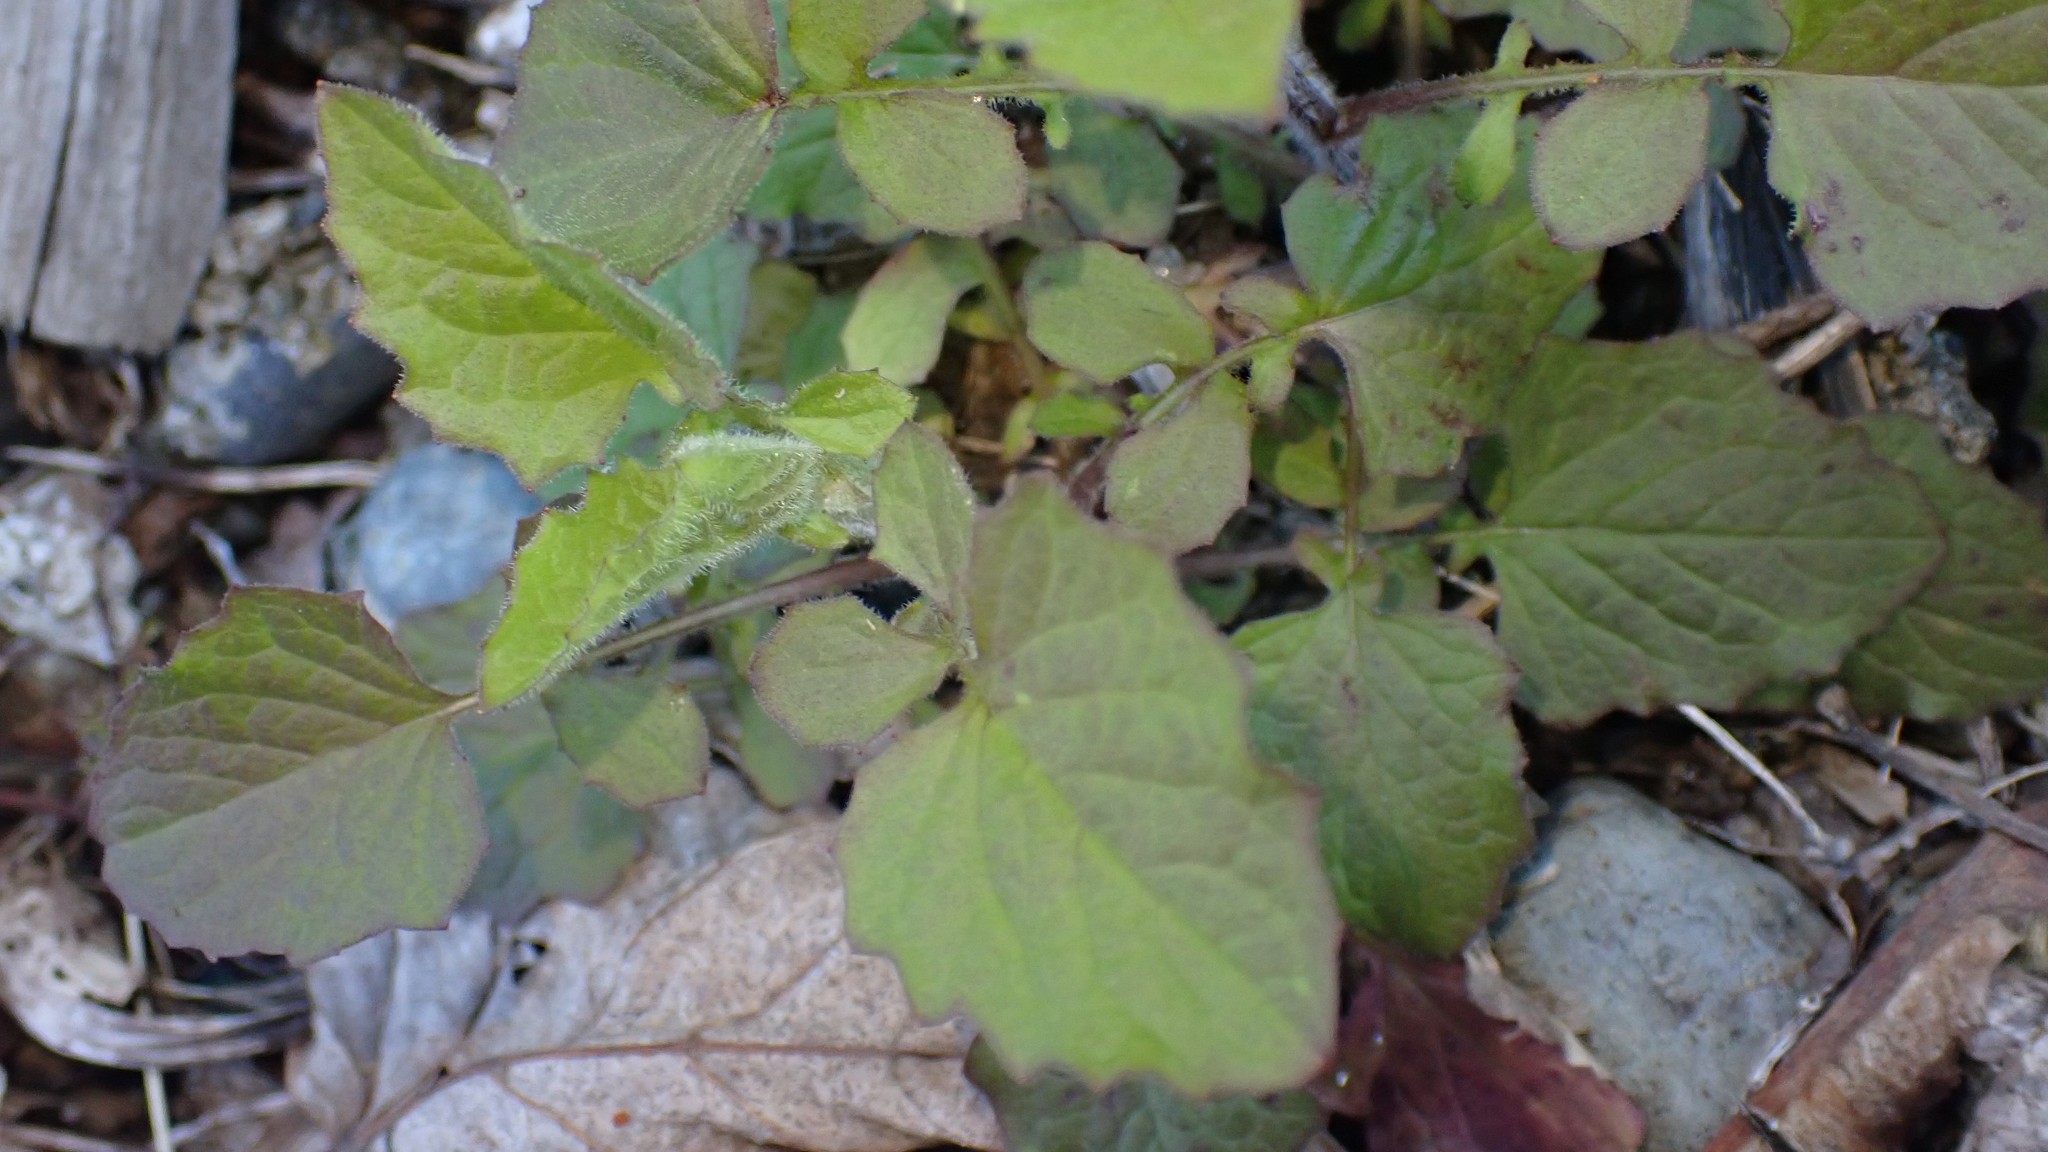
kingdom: Plantae
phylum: Tracheophyta
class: Magnoliopsida
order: Asterales
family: Asteraceae
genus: Lapsana
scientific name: Lapsana communis
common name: Nipplewort
